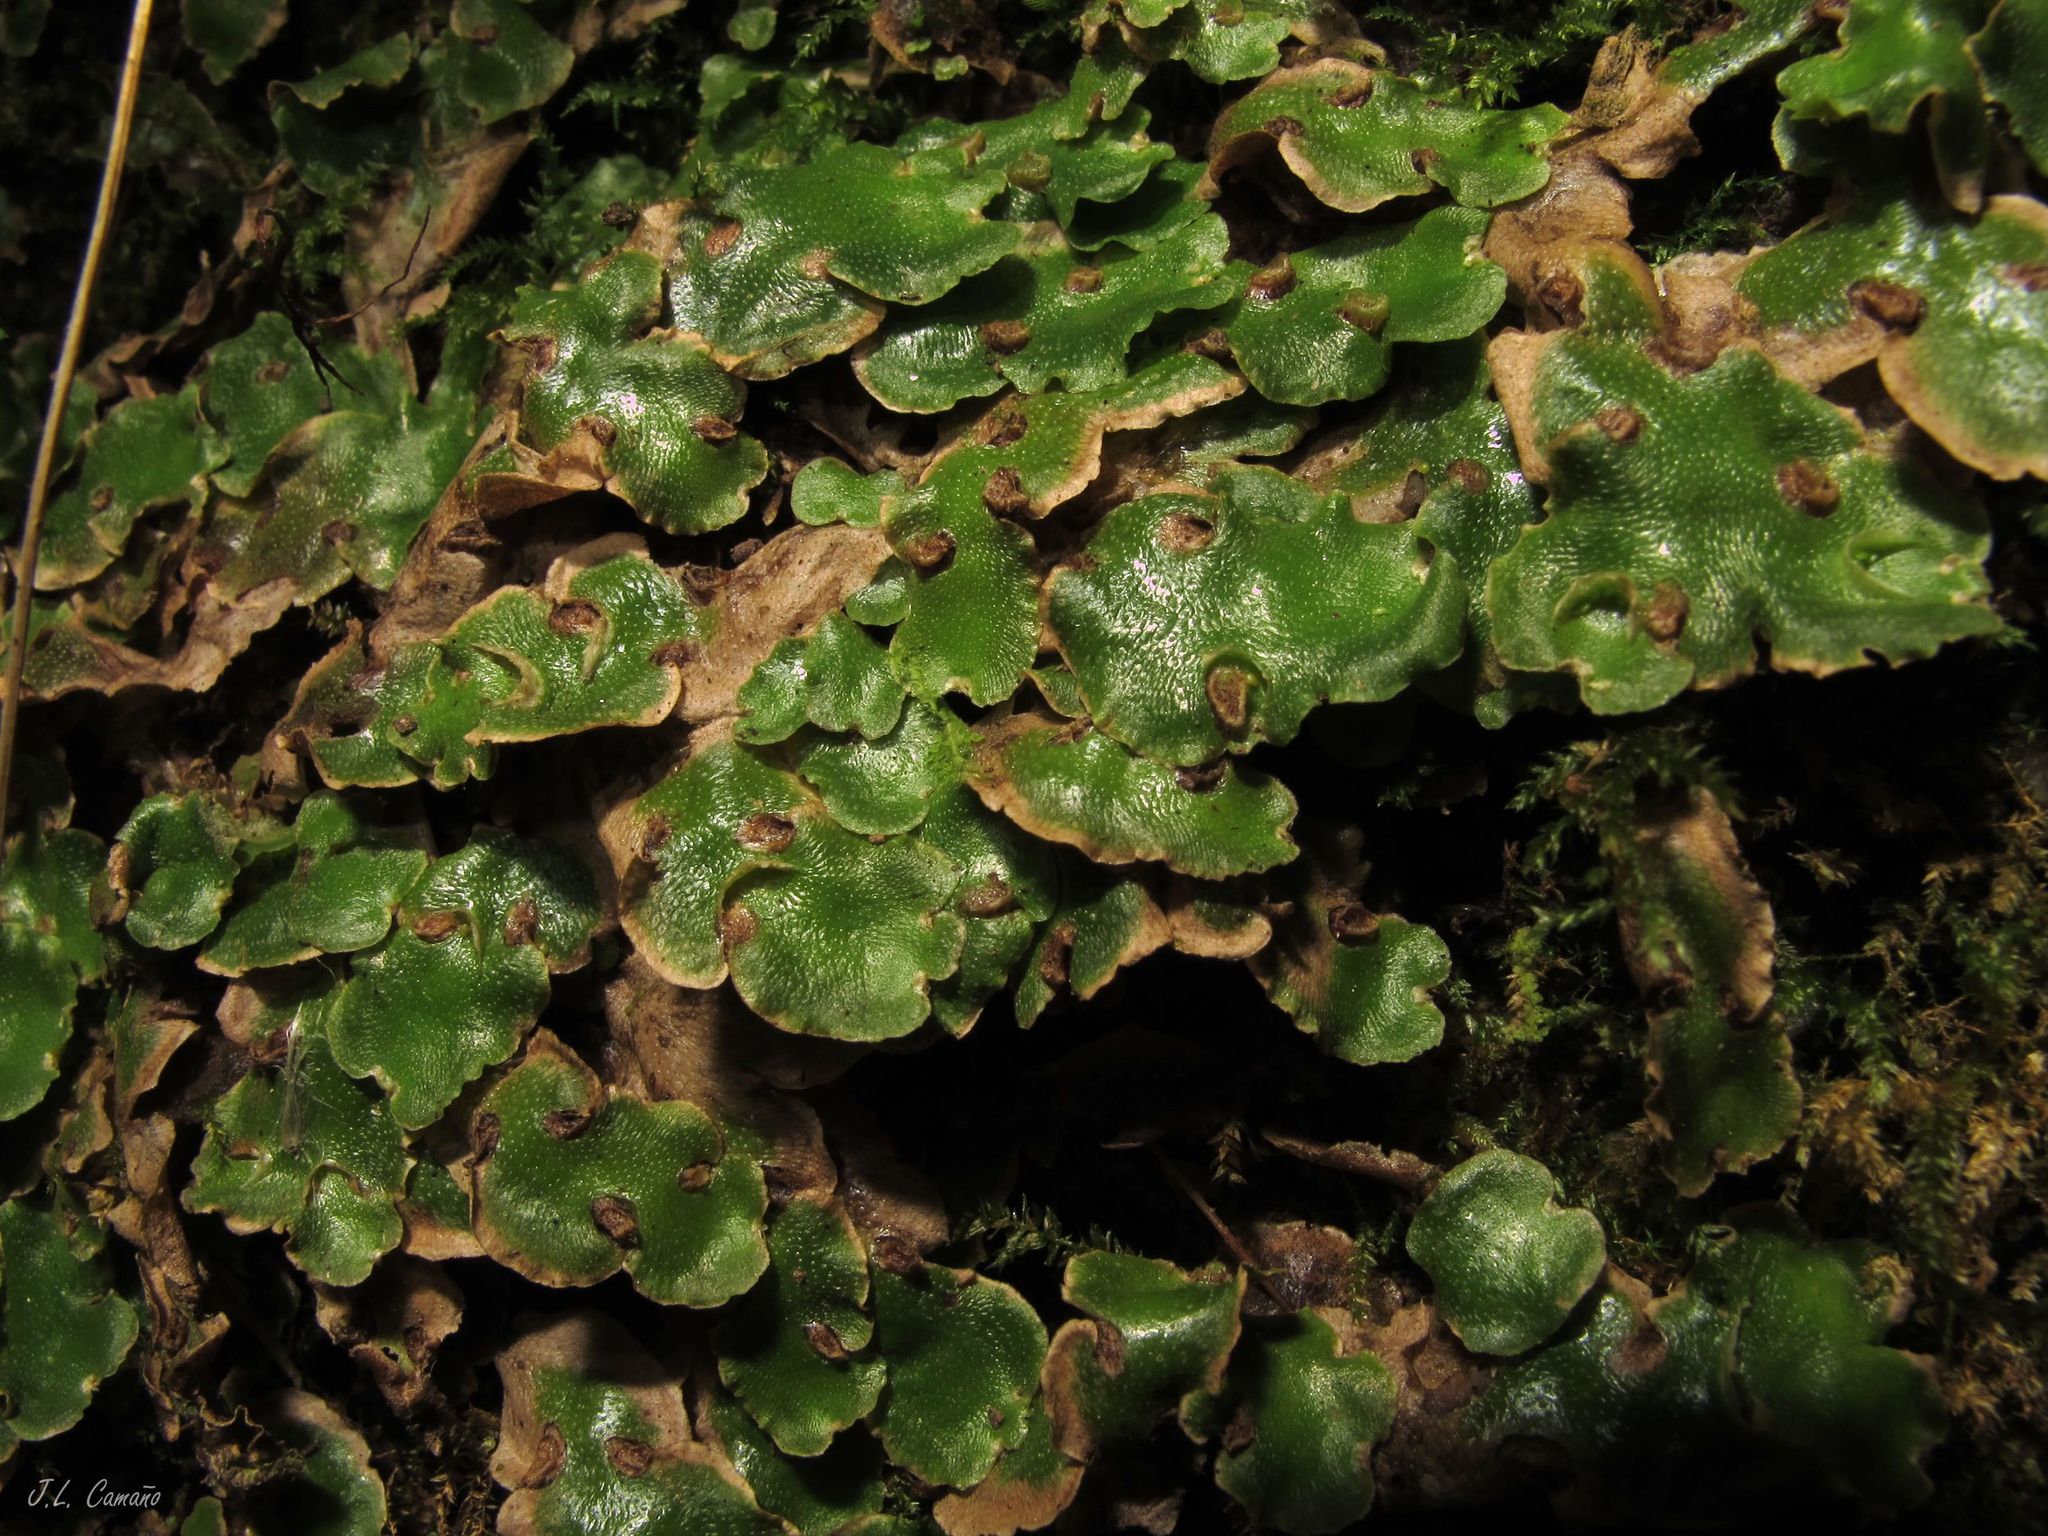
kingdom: Plantae
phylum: Marchantiophyta
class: Marchantiopsida
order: Lunulariales
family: Lunulariaceae
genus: Lunularia
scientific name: Lunularia cruciata
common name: Crescent-cup liverwort
